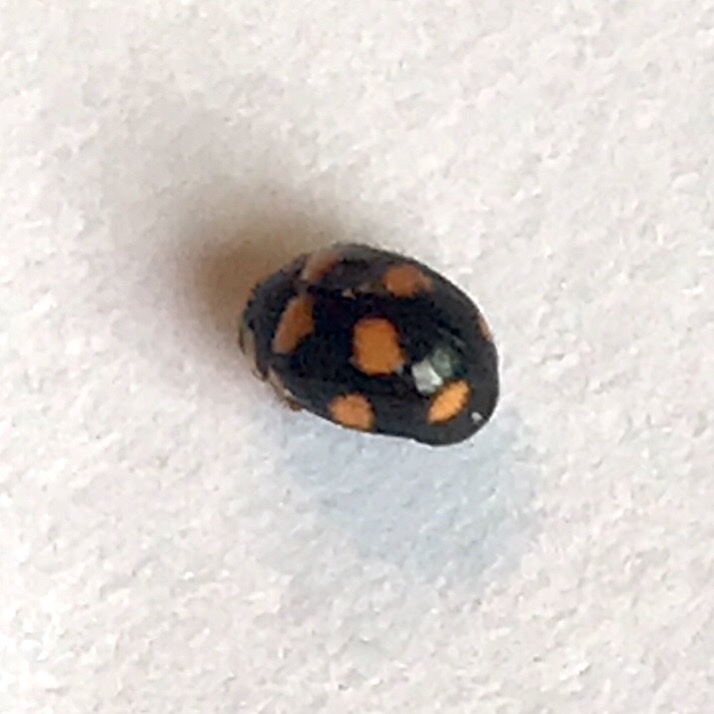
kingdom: Animalia
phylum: Arthropoda
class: Insecta
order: Coleoptera
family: Coccinellidae
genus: Brachiacantha
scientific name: Brachiacantha ursina
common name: Ursine spurleg lady beetle
